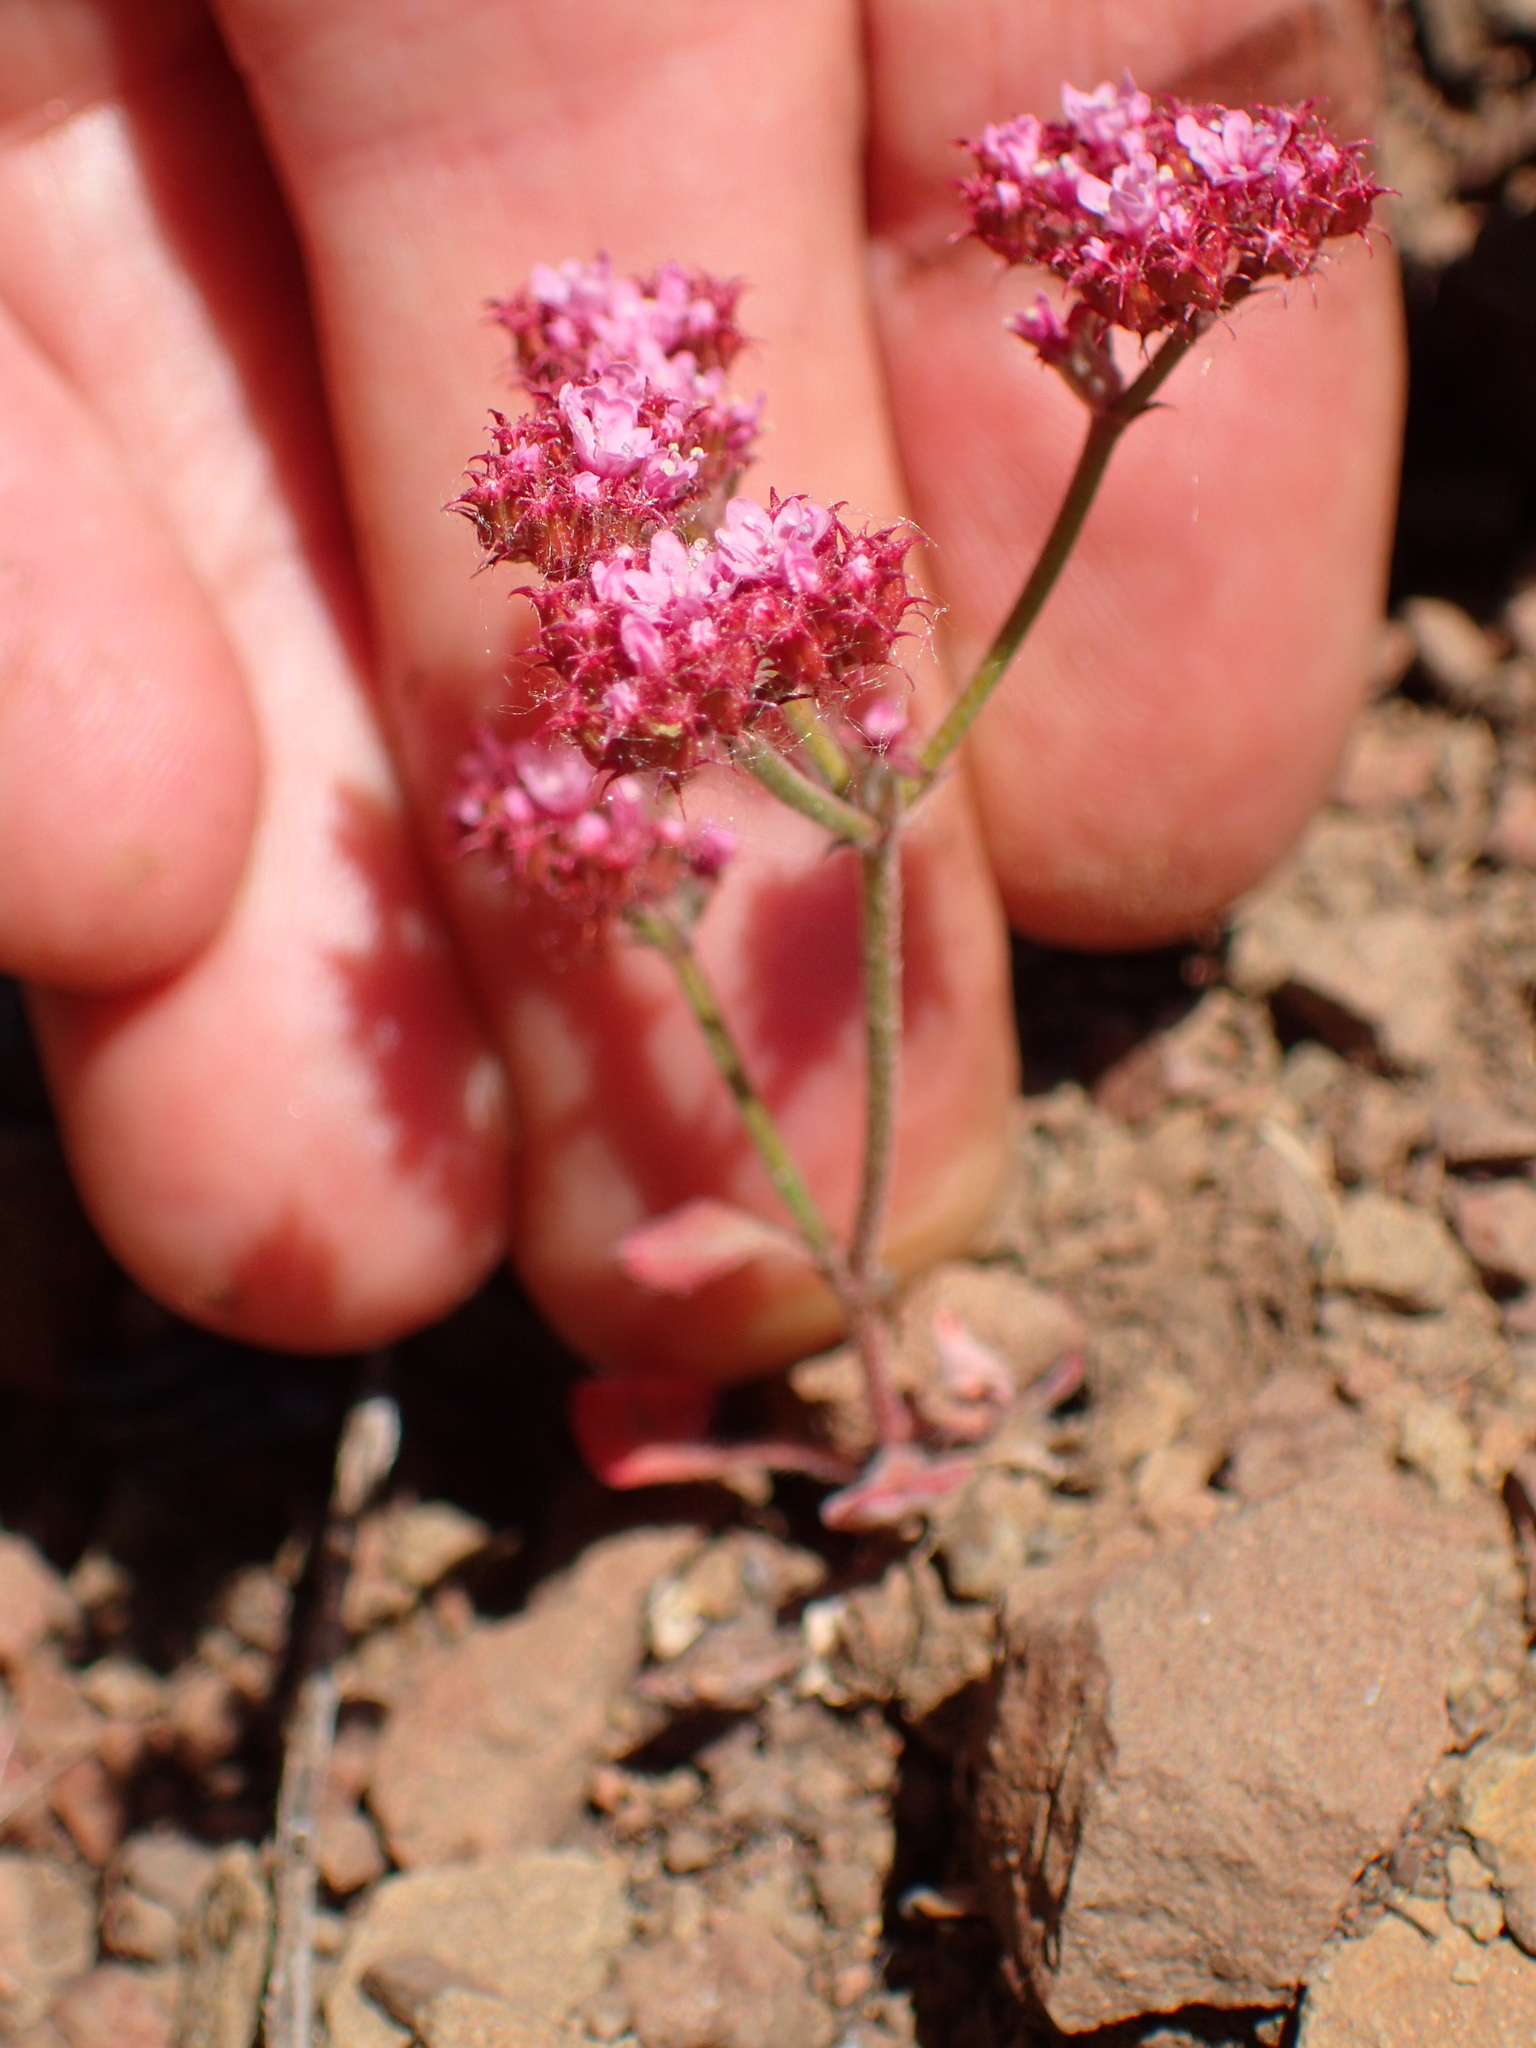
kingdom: Plantae
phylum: Tracheophyta
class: Magnoliopsida
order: Caryophyllales
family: Polygonaceae
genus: Chorizanthe
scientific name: Chorizanthe staticoides
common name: Turkish rugging
